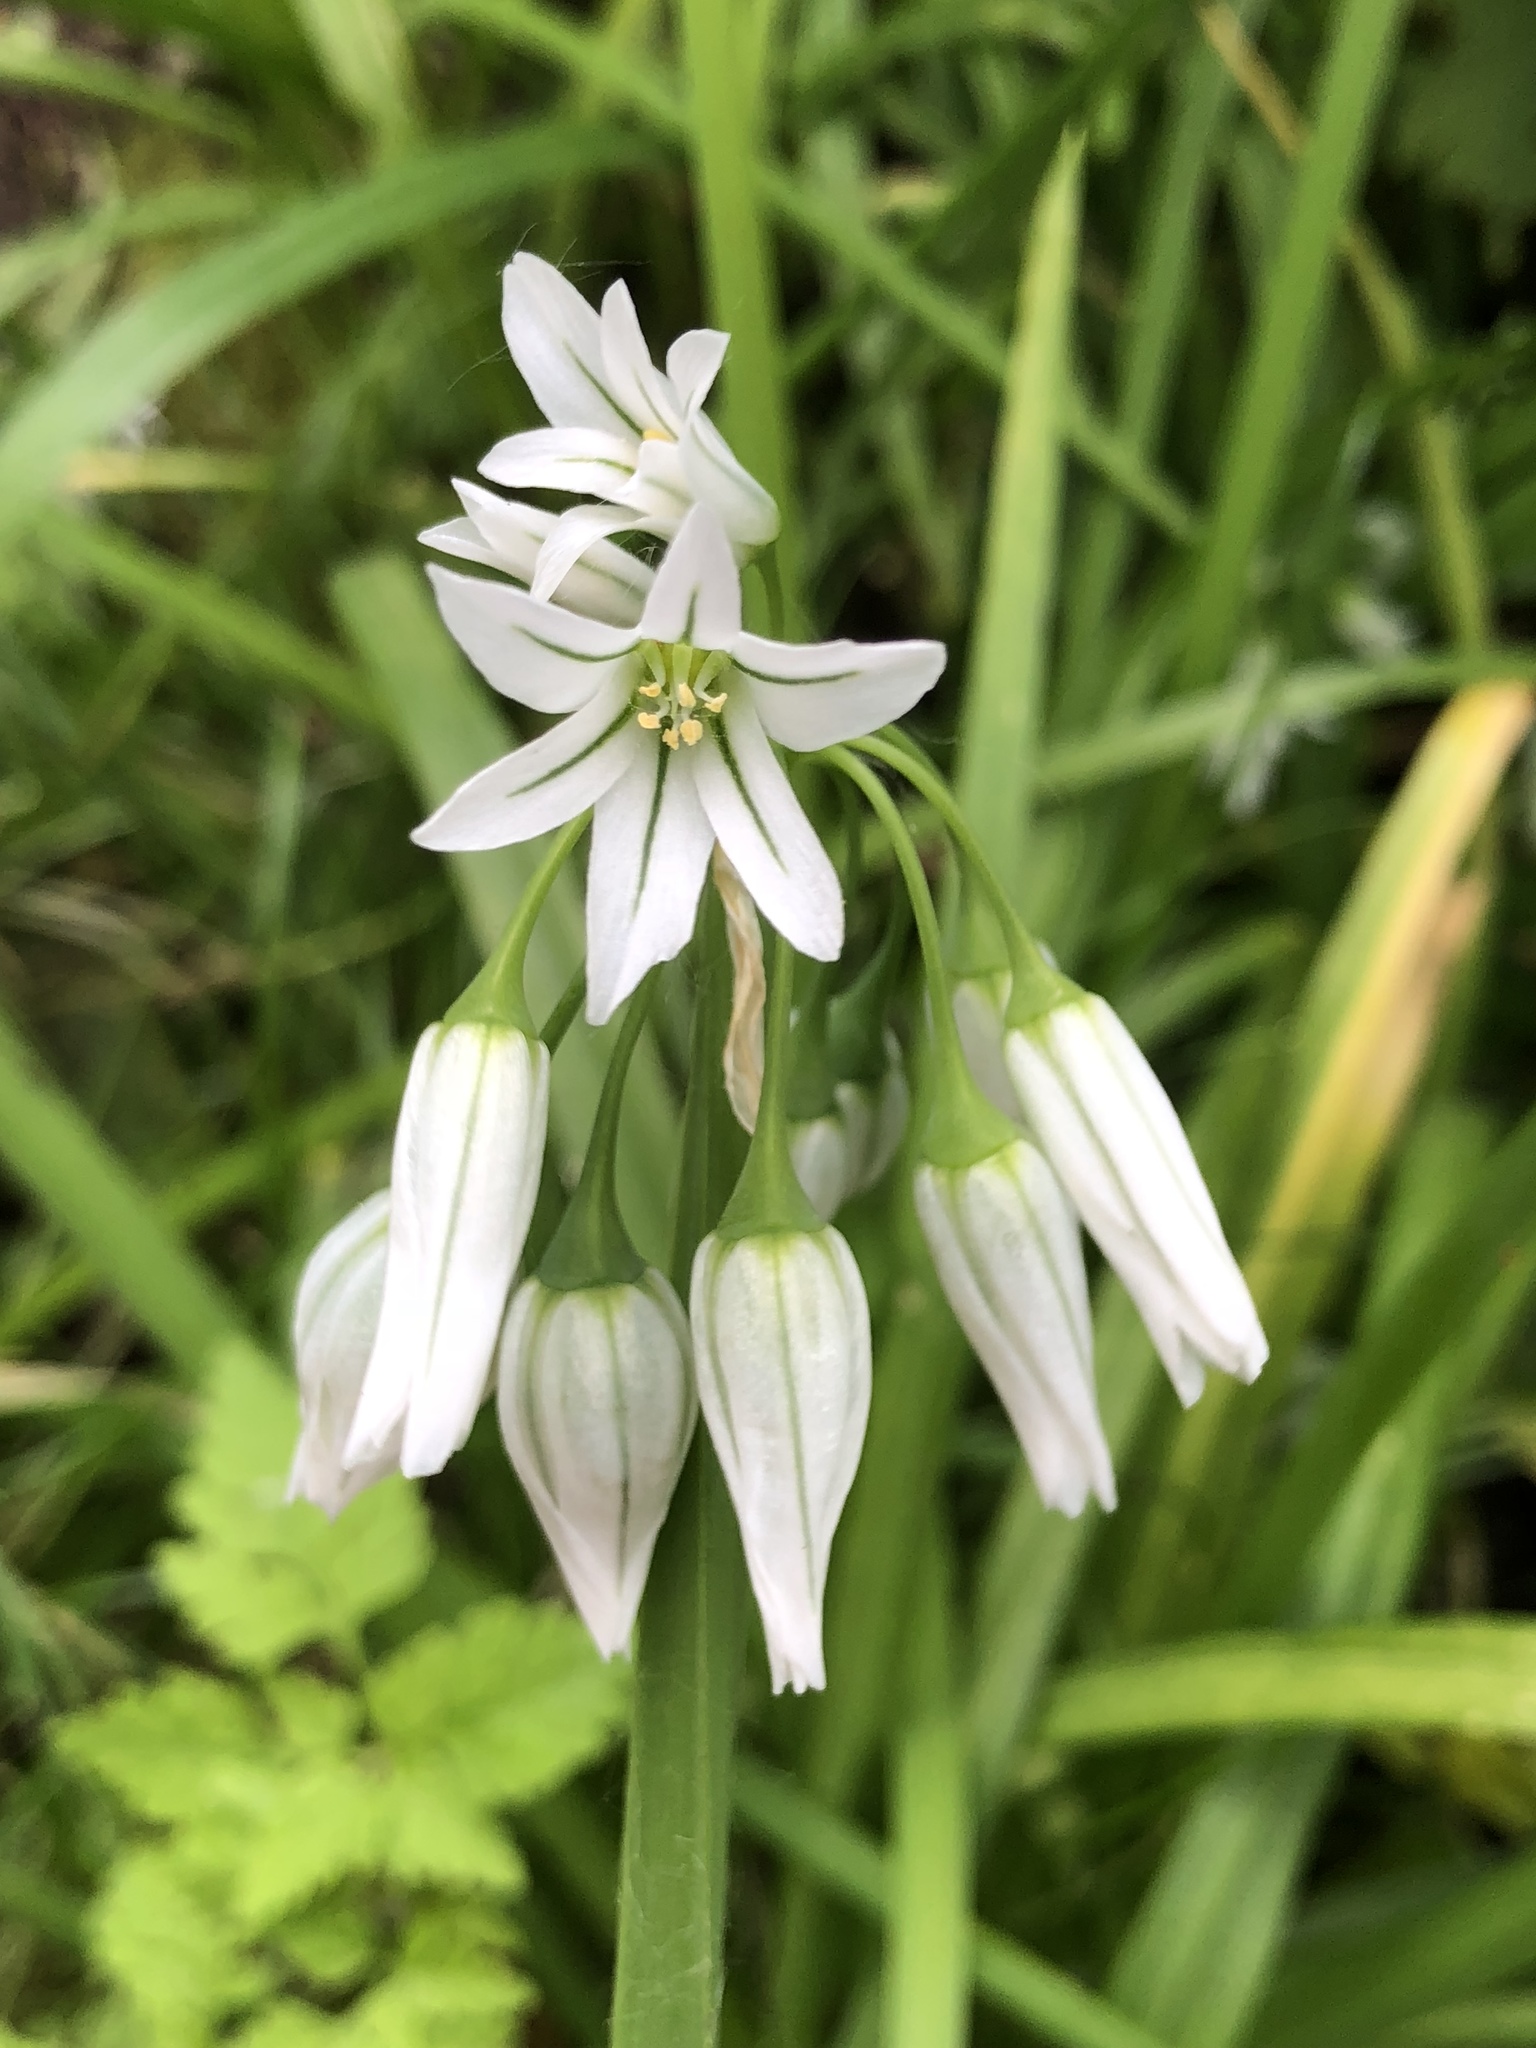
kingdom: Plantae
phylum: Tracheophyta
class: Liliopsida
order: Asparagales
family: Amaryllidaceae
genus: Allium
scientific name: Allium triquetrum
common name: Three-cornered garlic
